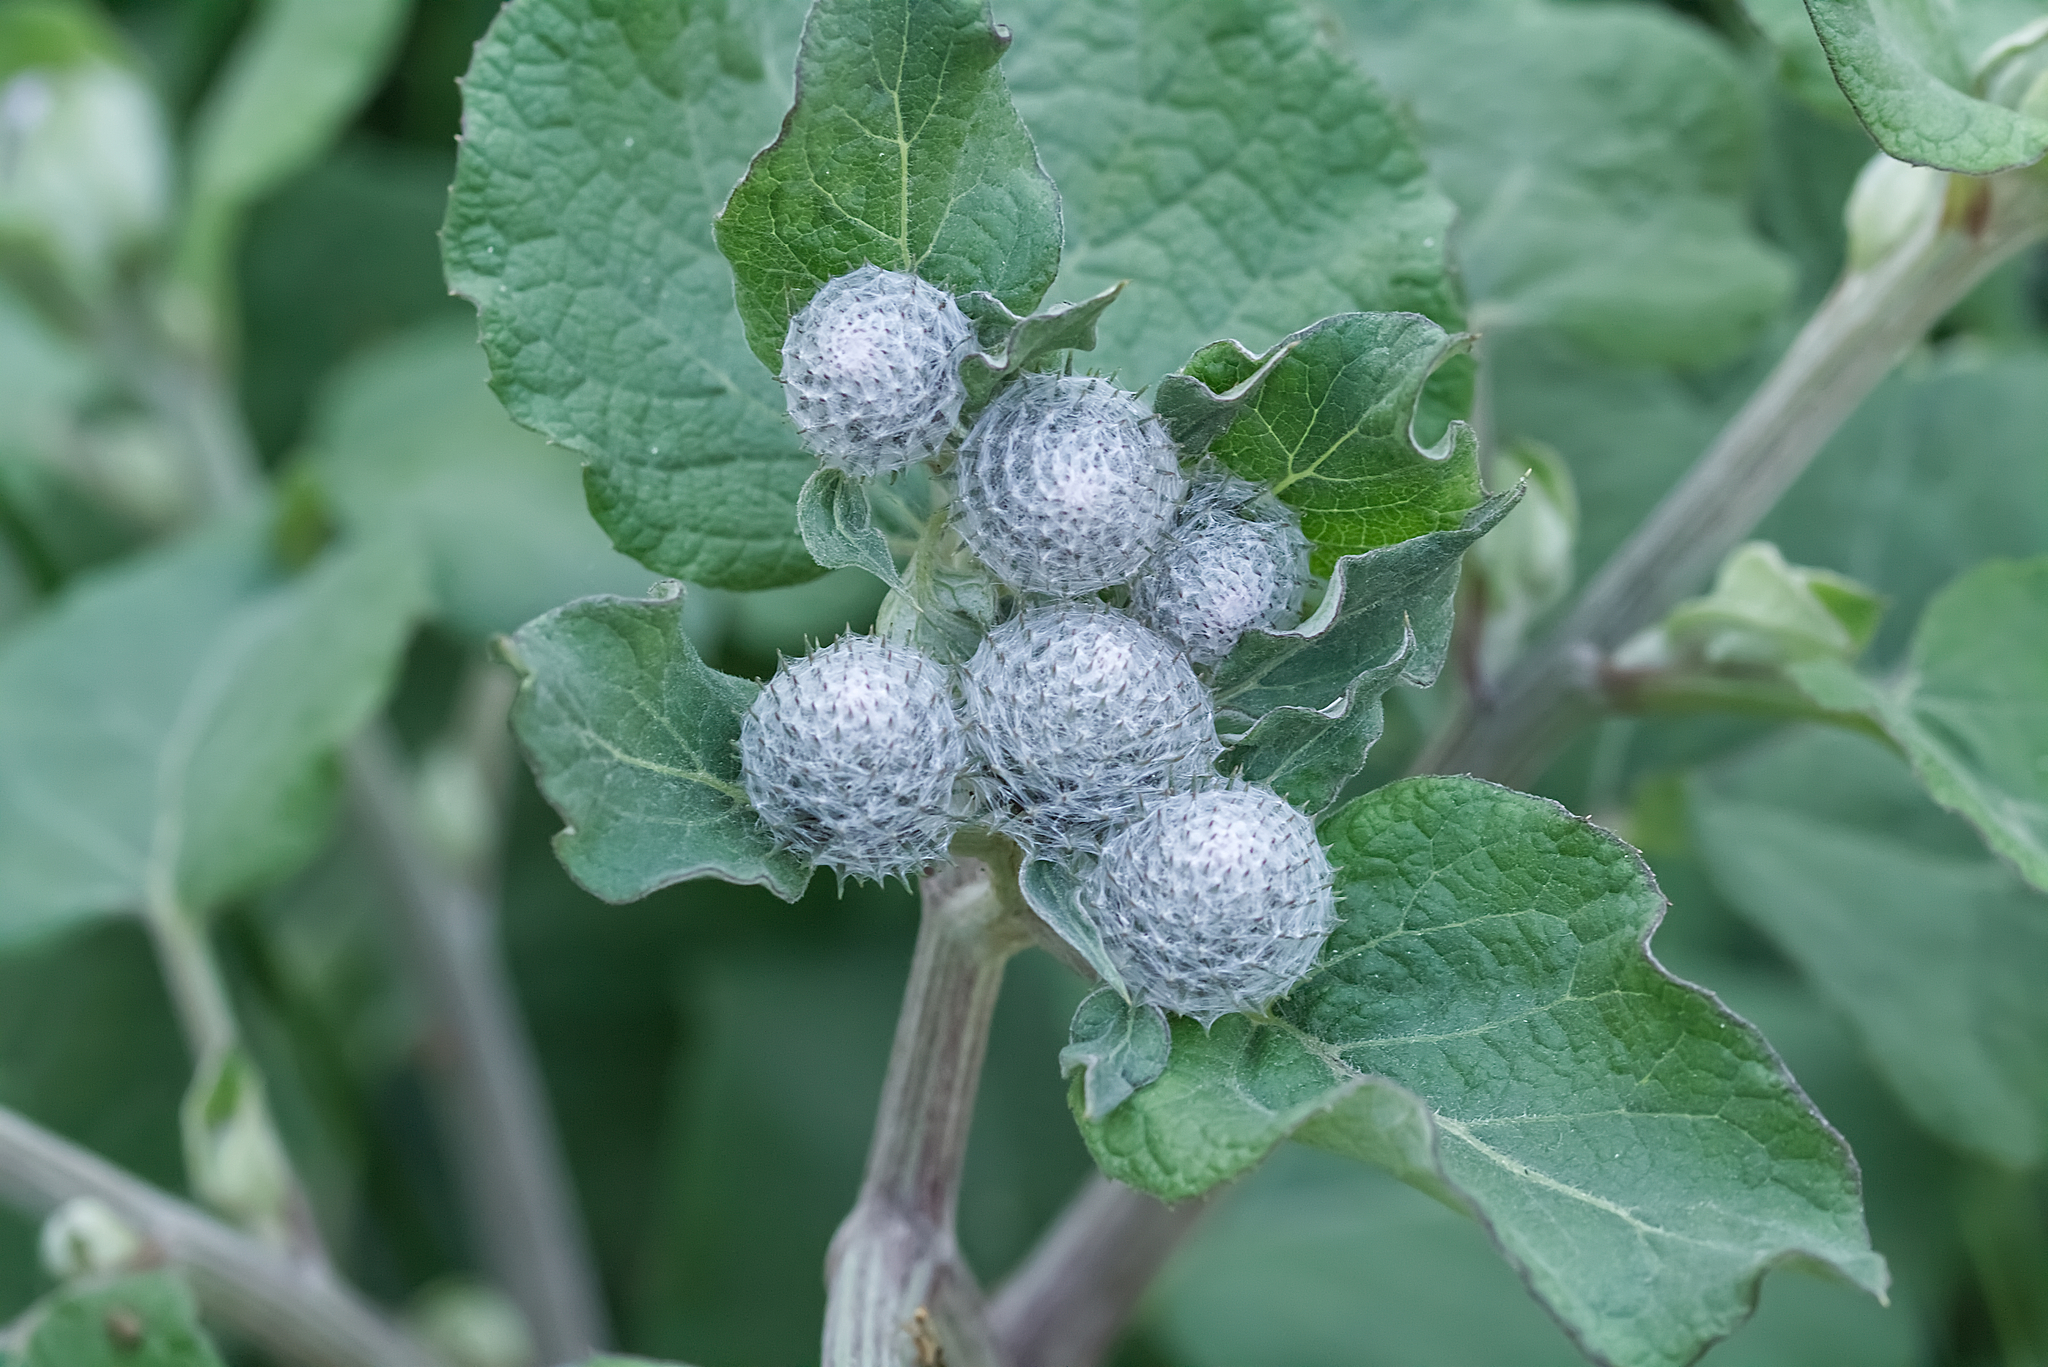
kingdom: Plantae
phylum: Tracheophyta
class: Magnoliopsida
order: Asterales
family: Asteraceae
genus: Arctium
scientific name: Arctium tomentosum
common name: Woolly burdock
